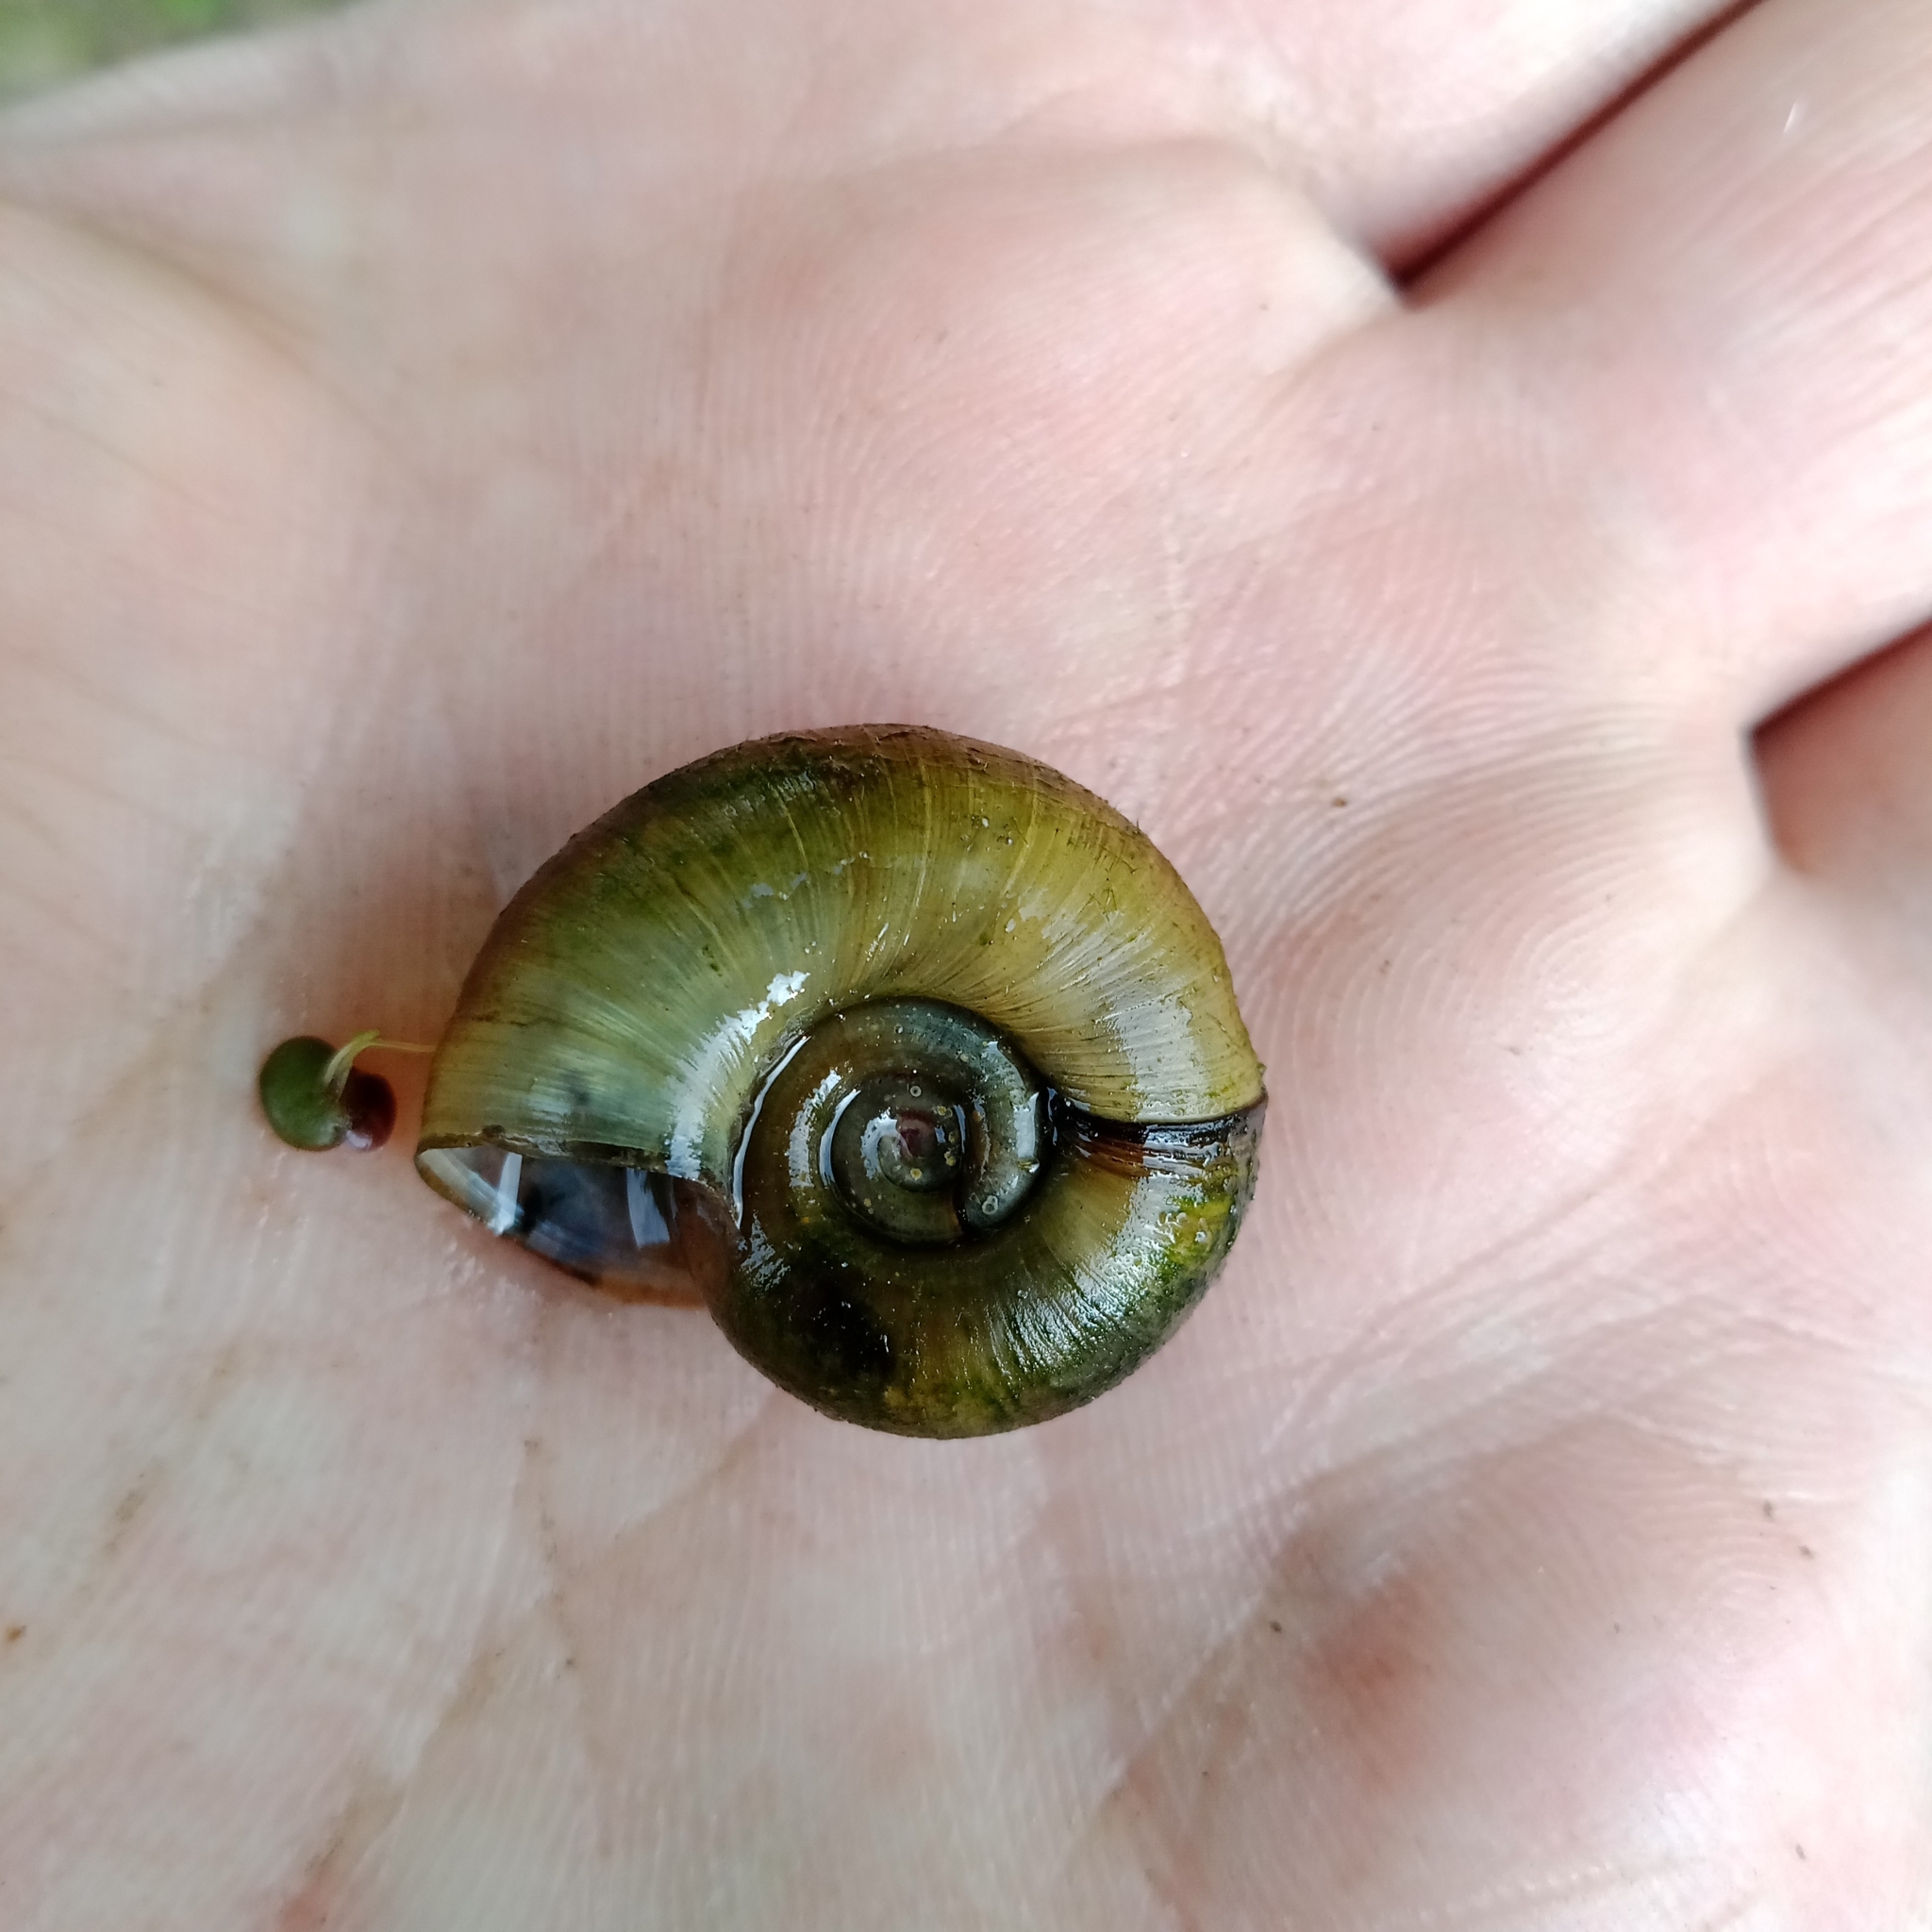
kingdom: Animalia
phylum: Mollusca
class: Gastropoda
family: Planorbidae
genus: Planorbarius
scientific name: Planorbarius corneus
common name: Great ramshorn
